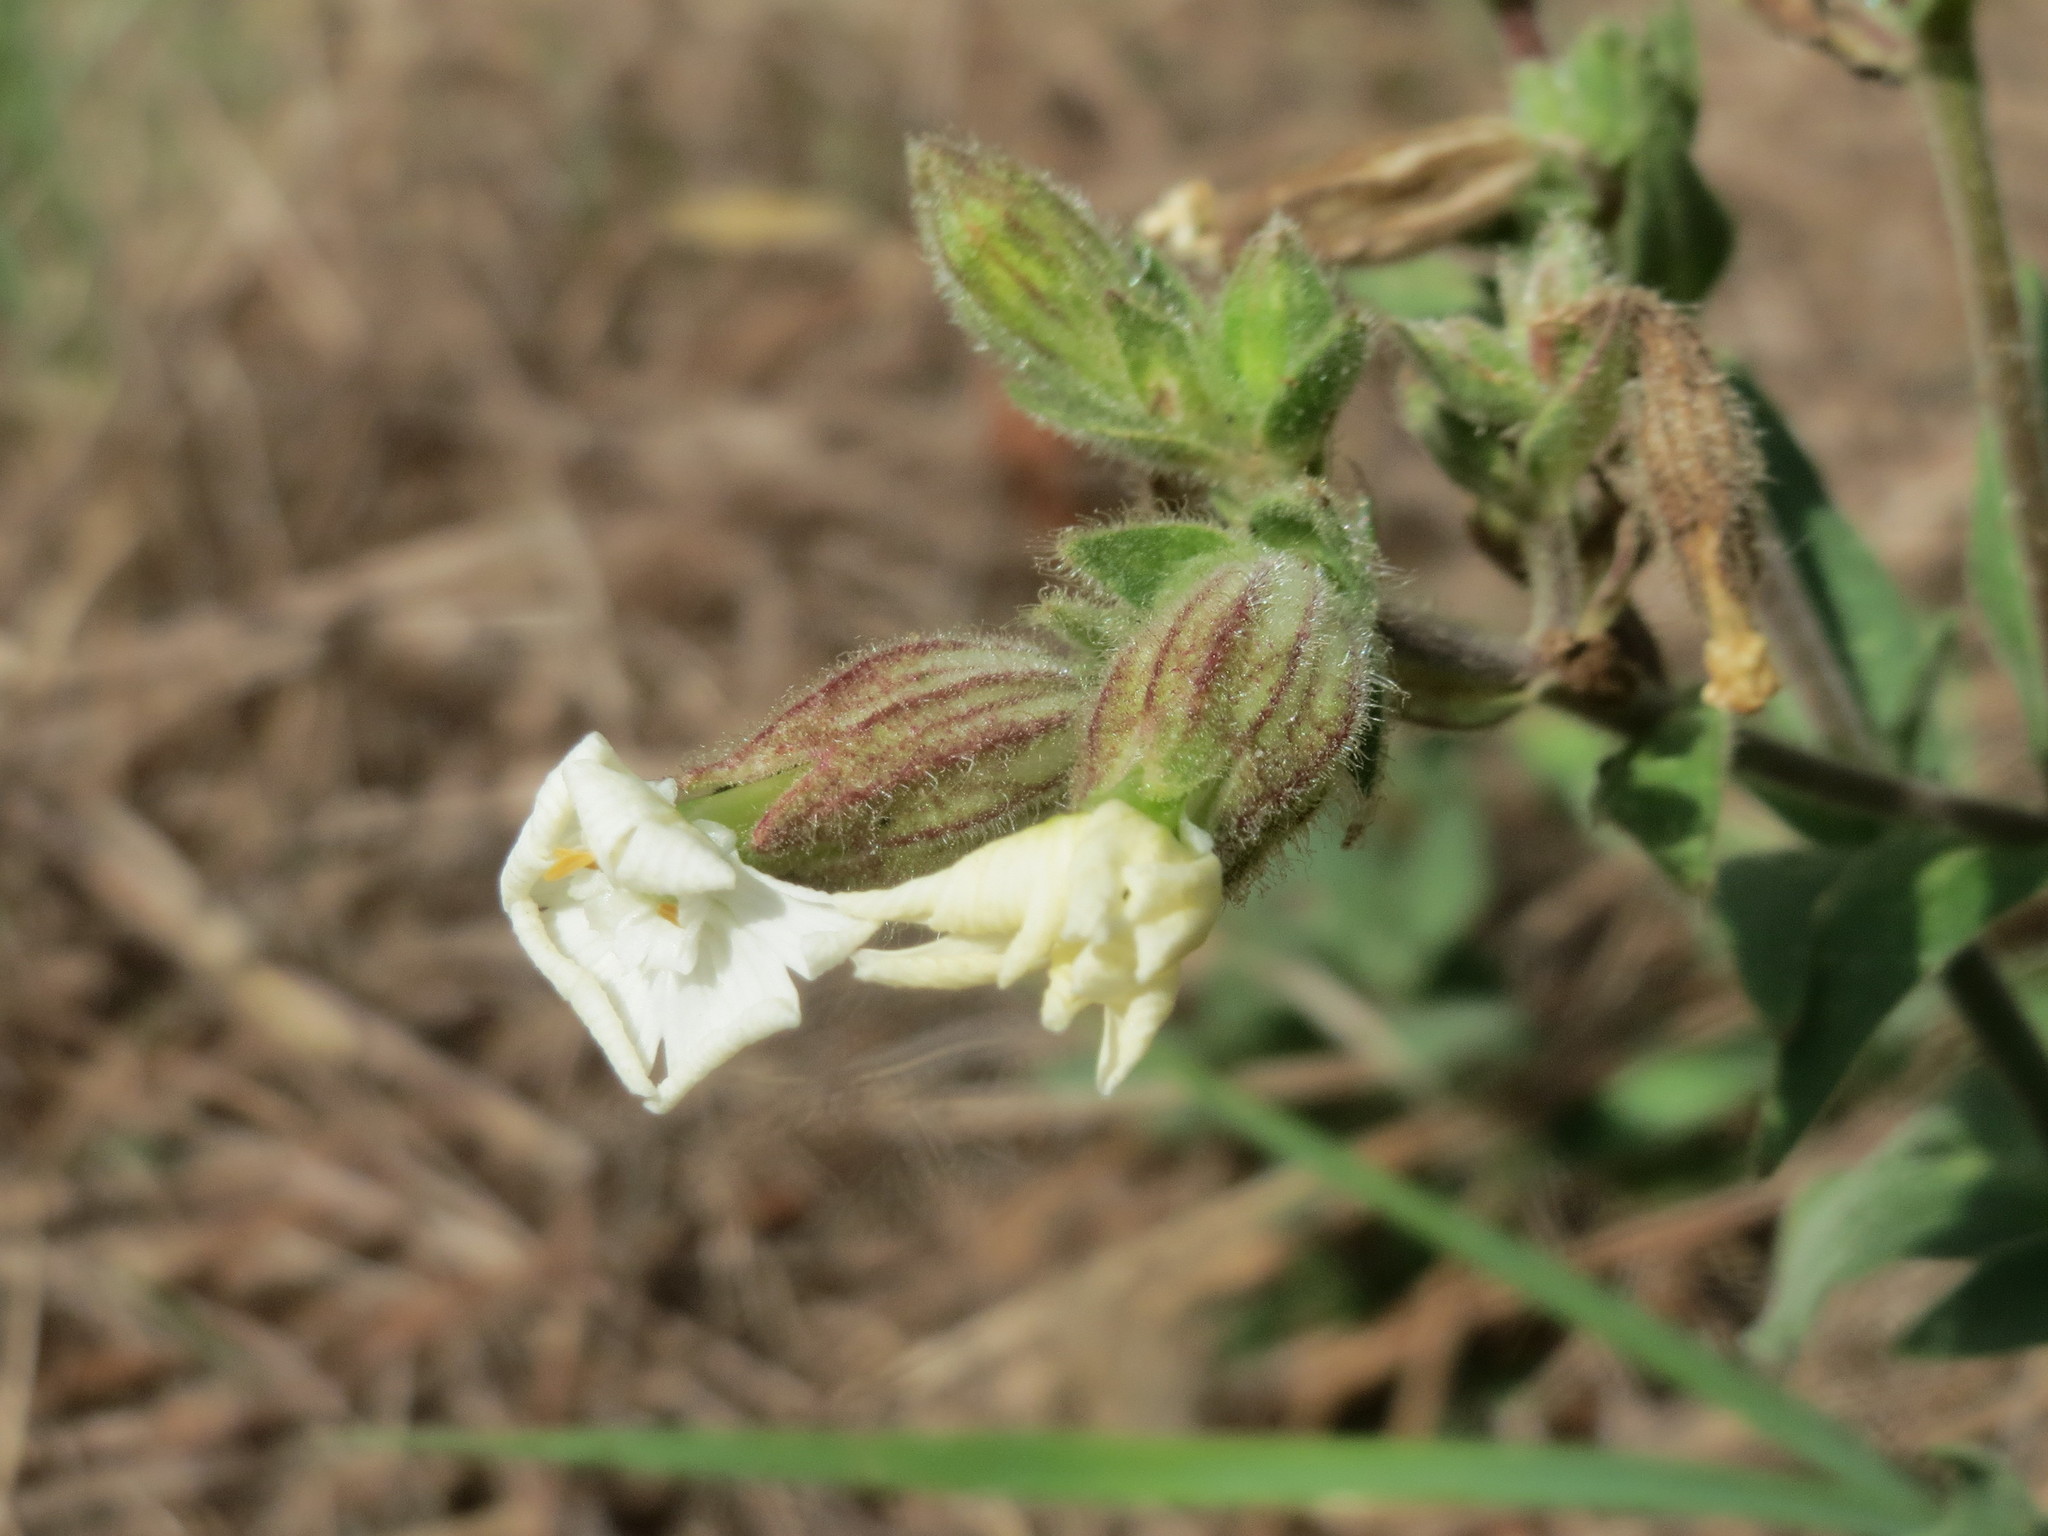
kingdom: Plantae
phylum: Tracheophyta
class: Magnoliopsida
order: Caryophyllales
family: Caryophyllaceae
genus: Silene
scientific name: Silene latifolia
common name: White campion
